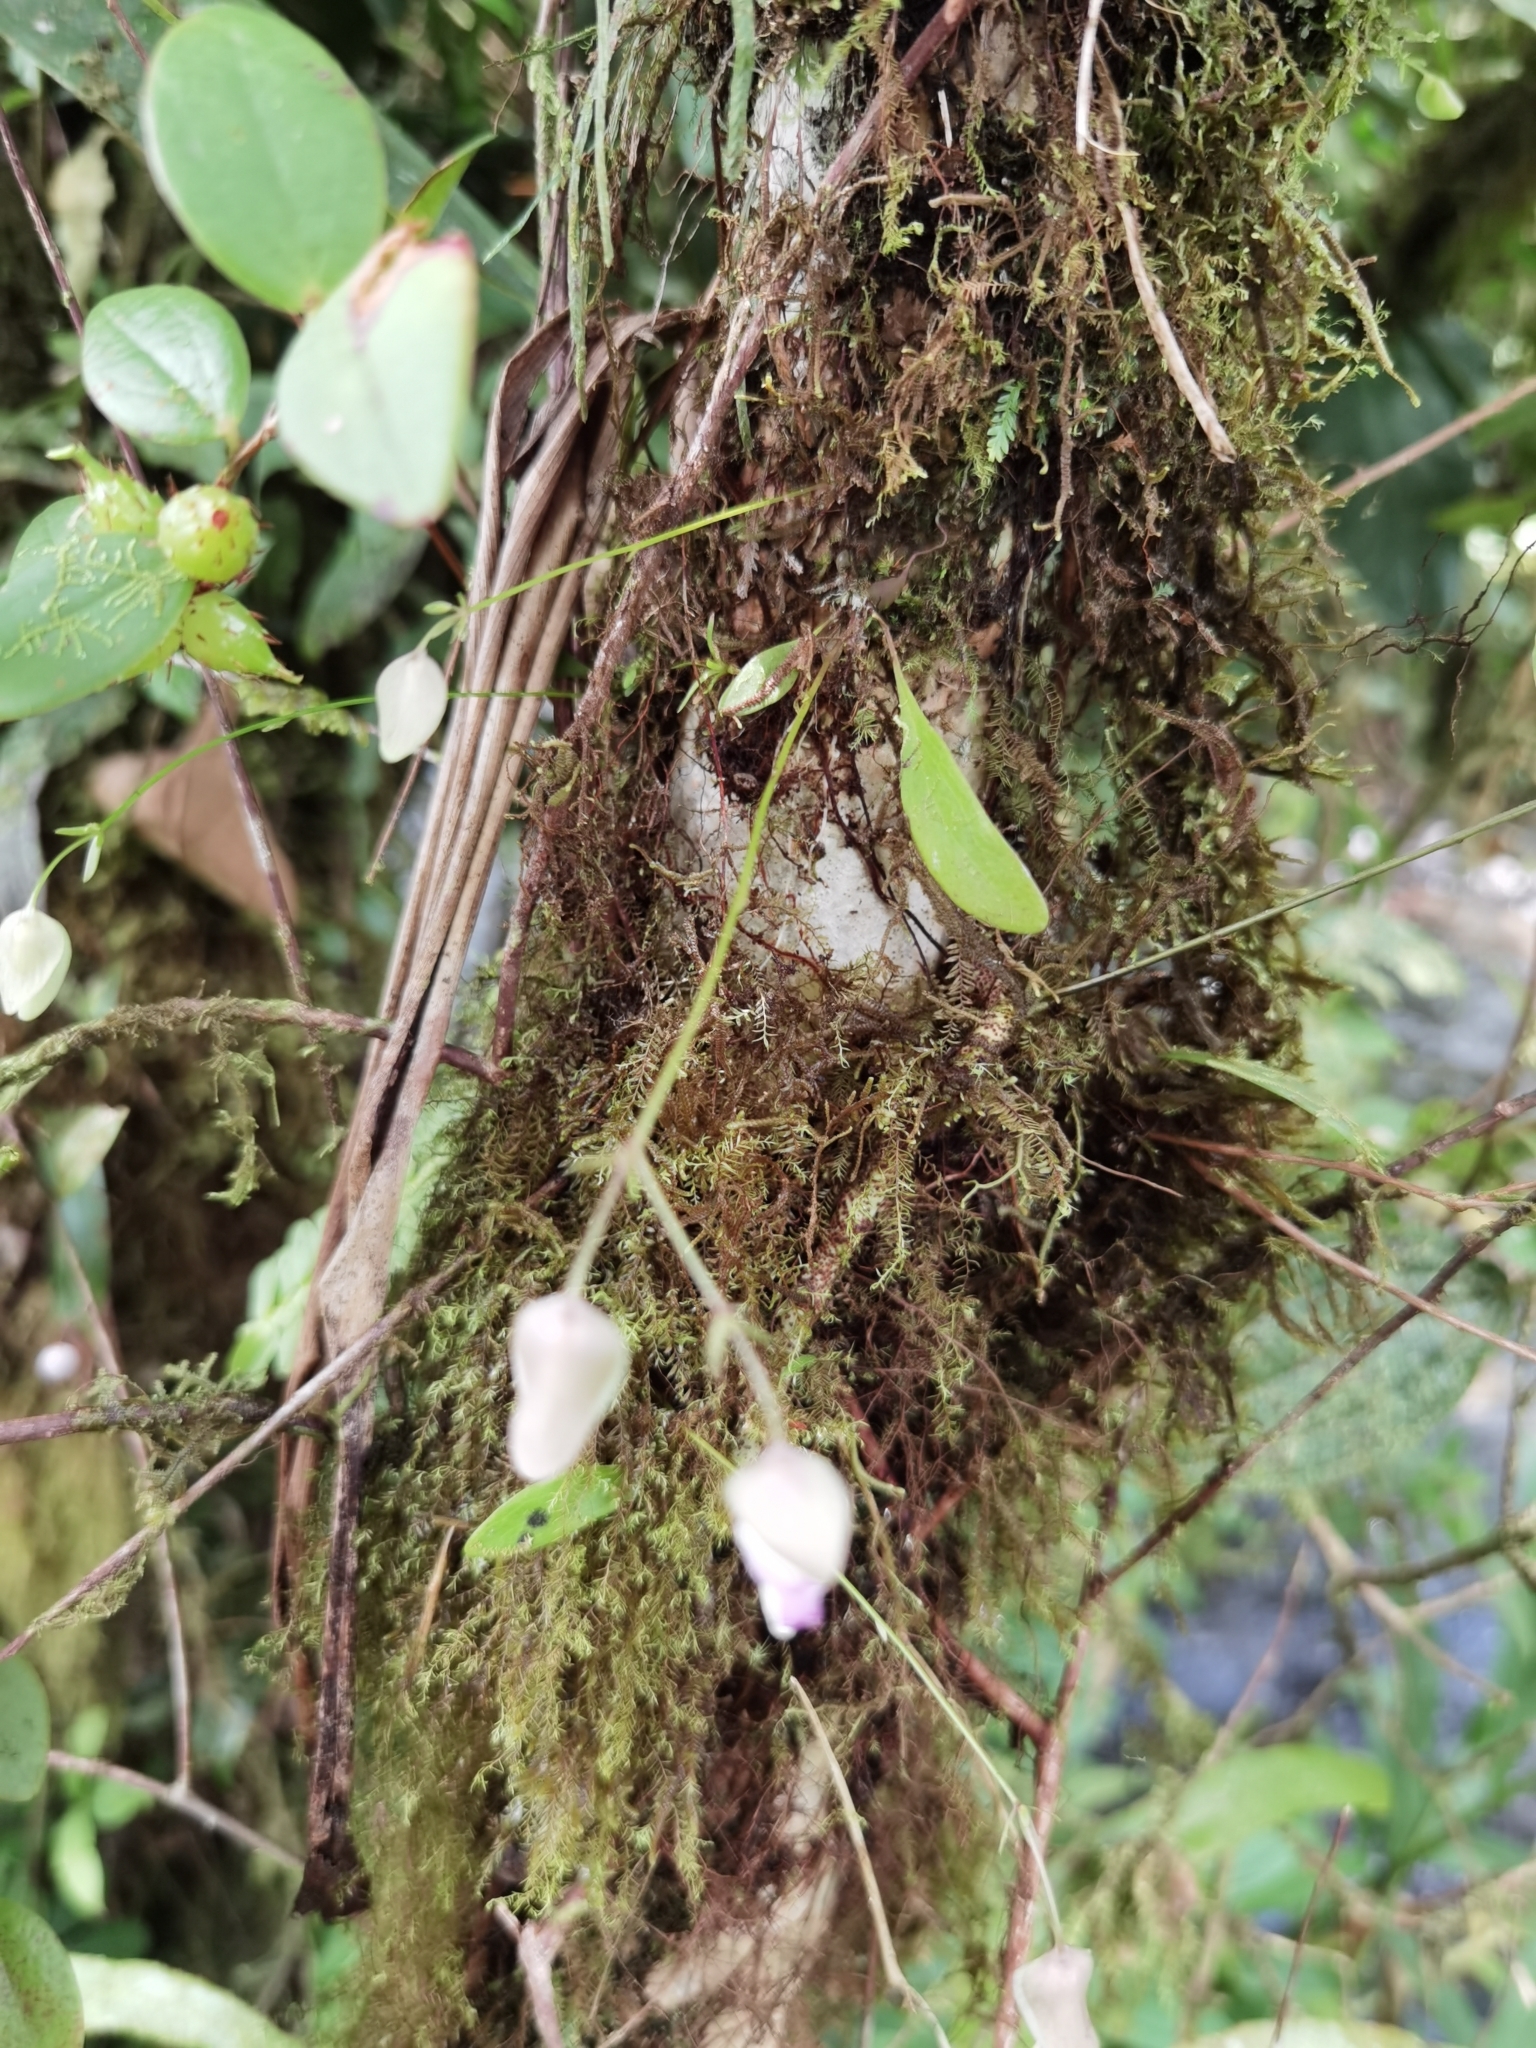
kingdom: Plantae
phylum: Tracheophyta
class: Magnoliopsida
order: Lamiales
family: Lentibulariaceae
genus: Utricularia
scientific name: Utricularia jamesoniana
